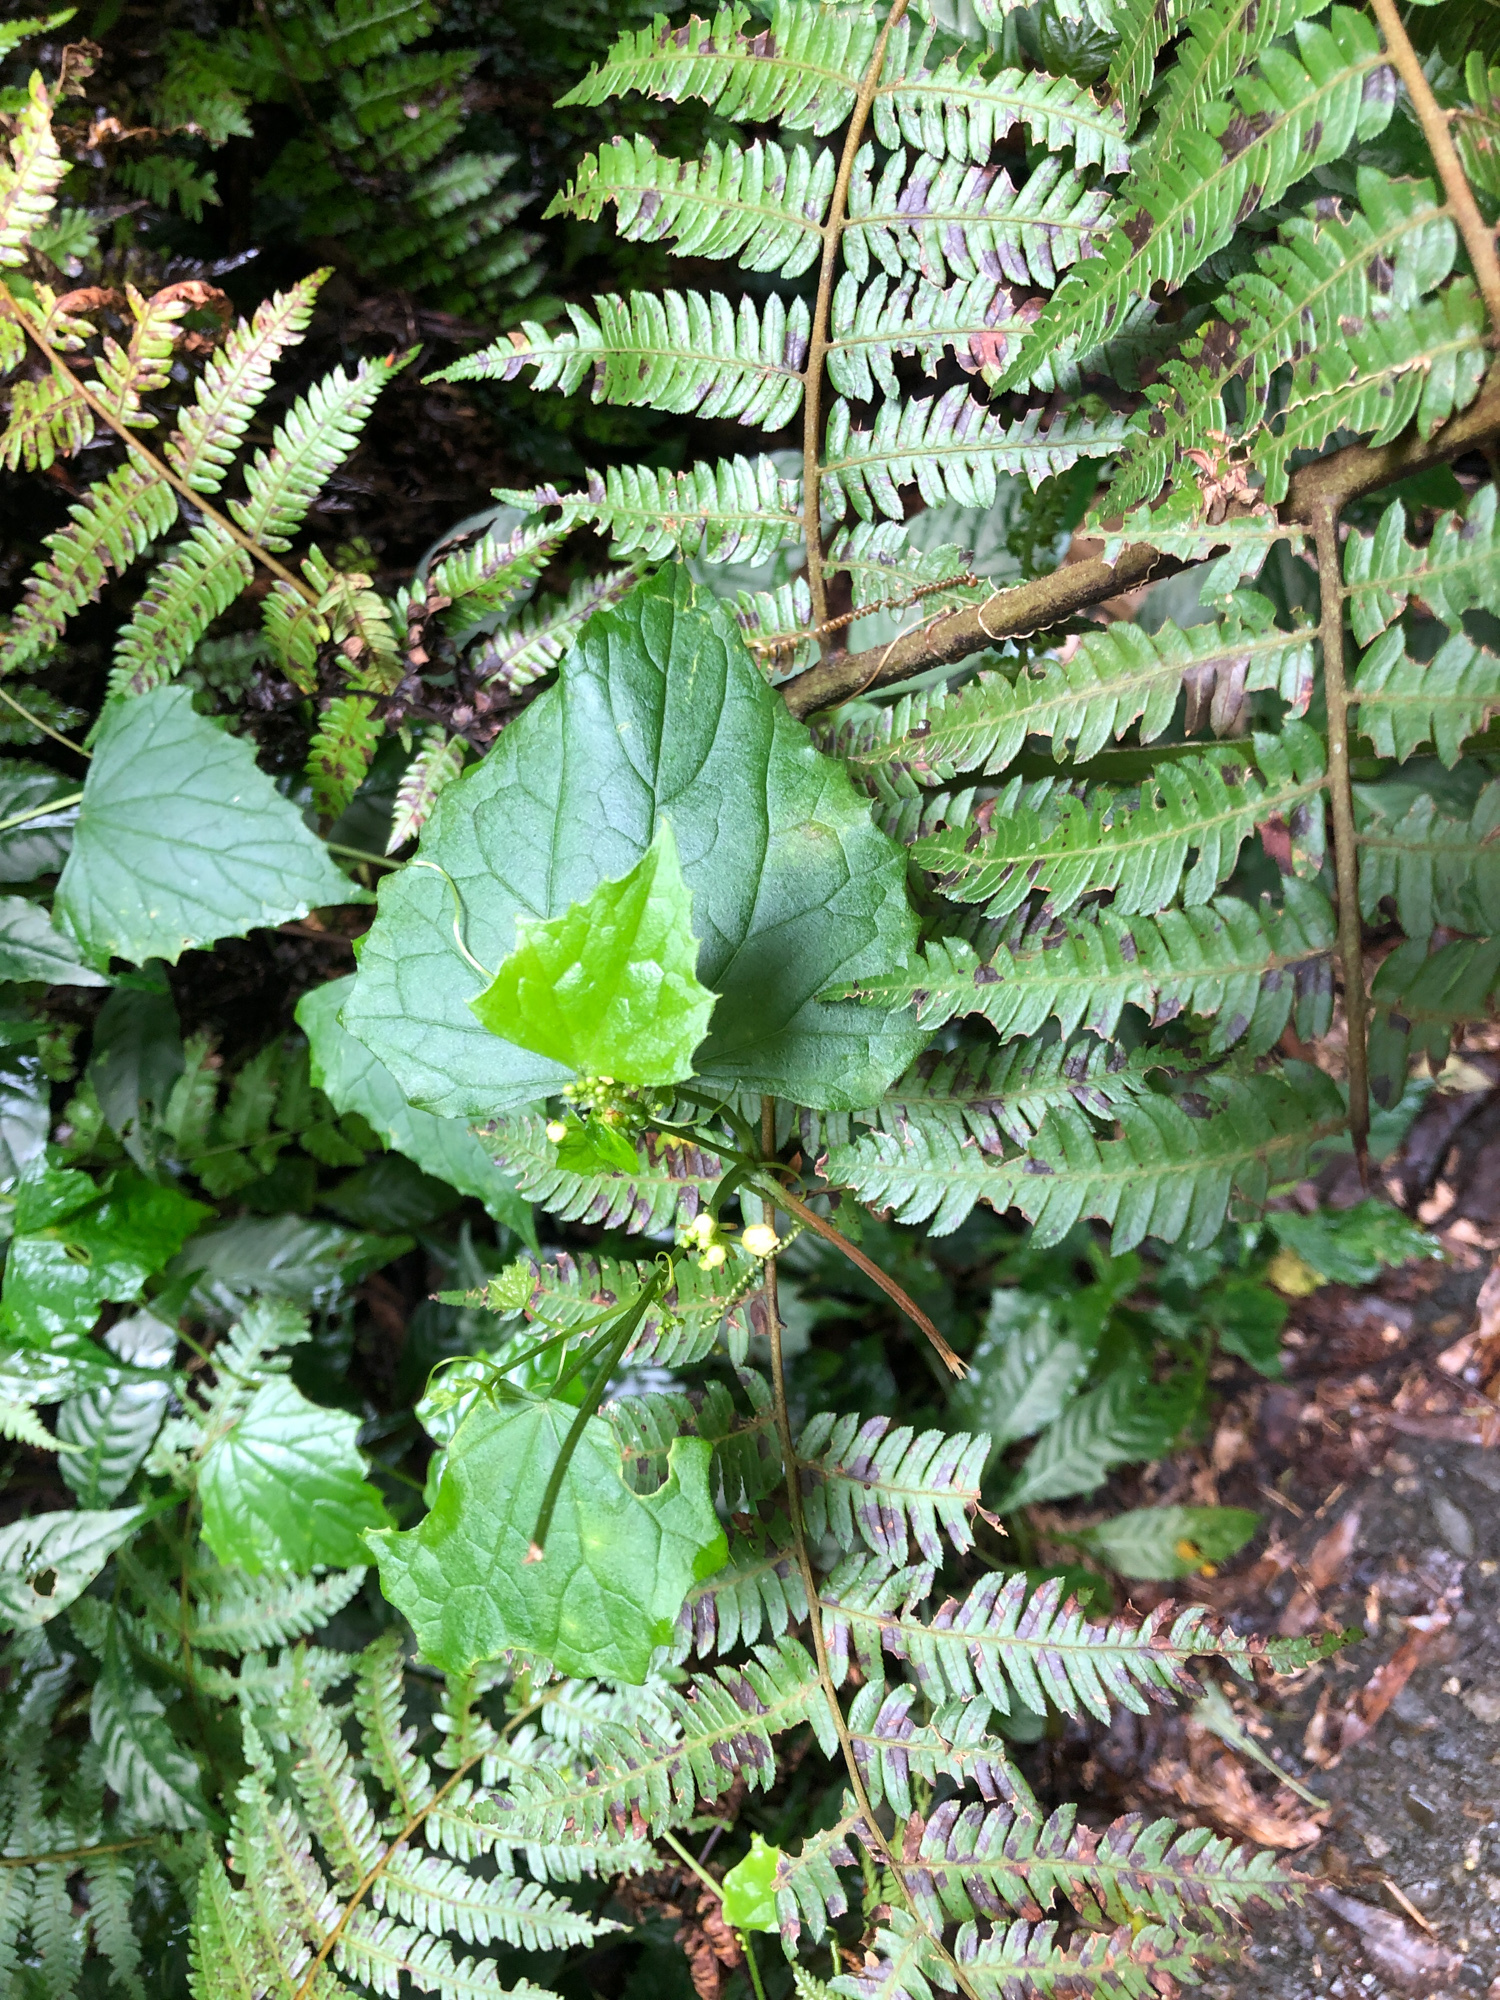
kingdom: Plantae
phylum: Tracheophyta
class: Magnoliopsida
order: Cucurbitales
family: Cucurbitaceae
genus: Zehneria
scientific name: Zehneria guamensis
